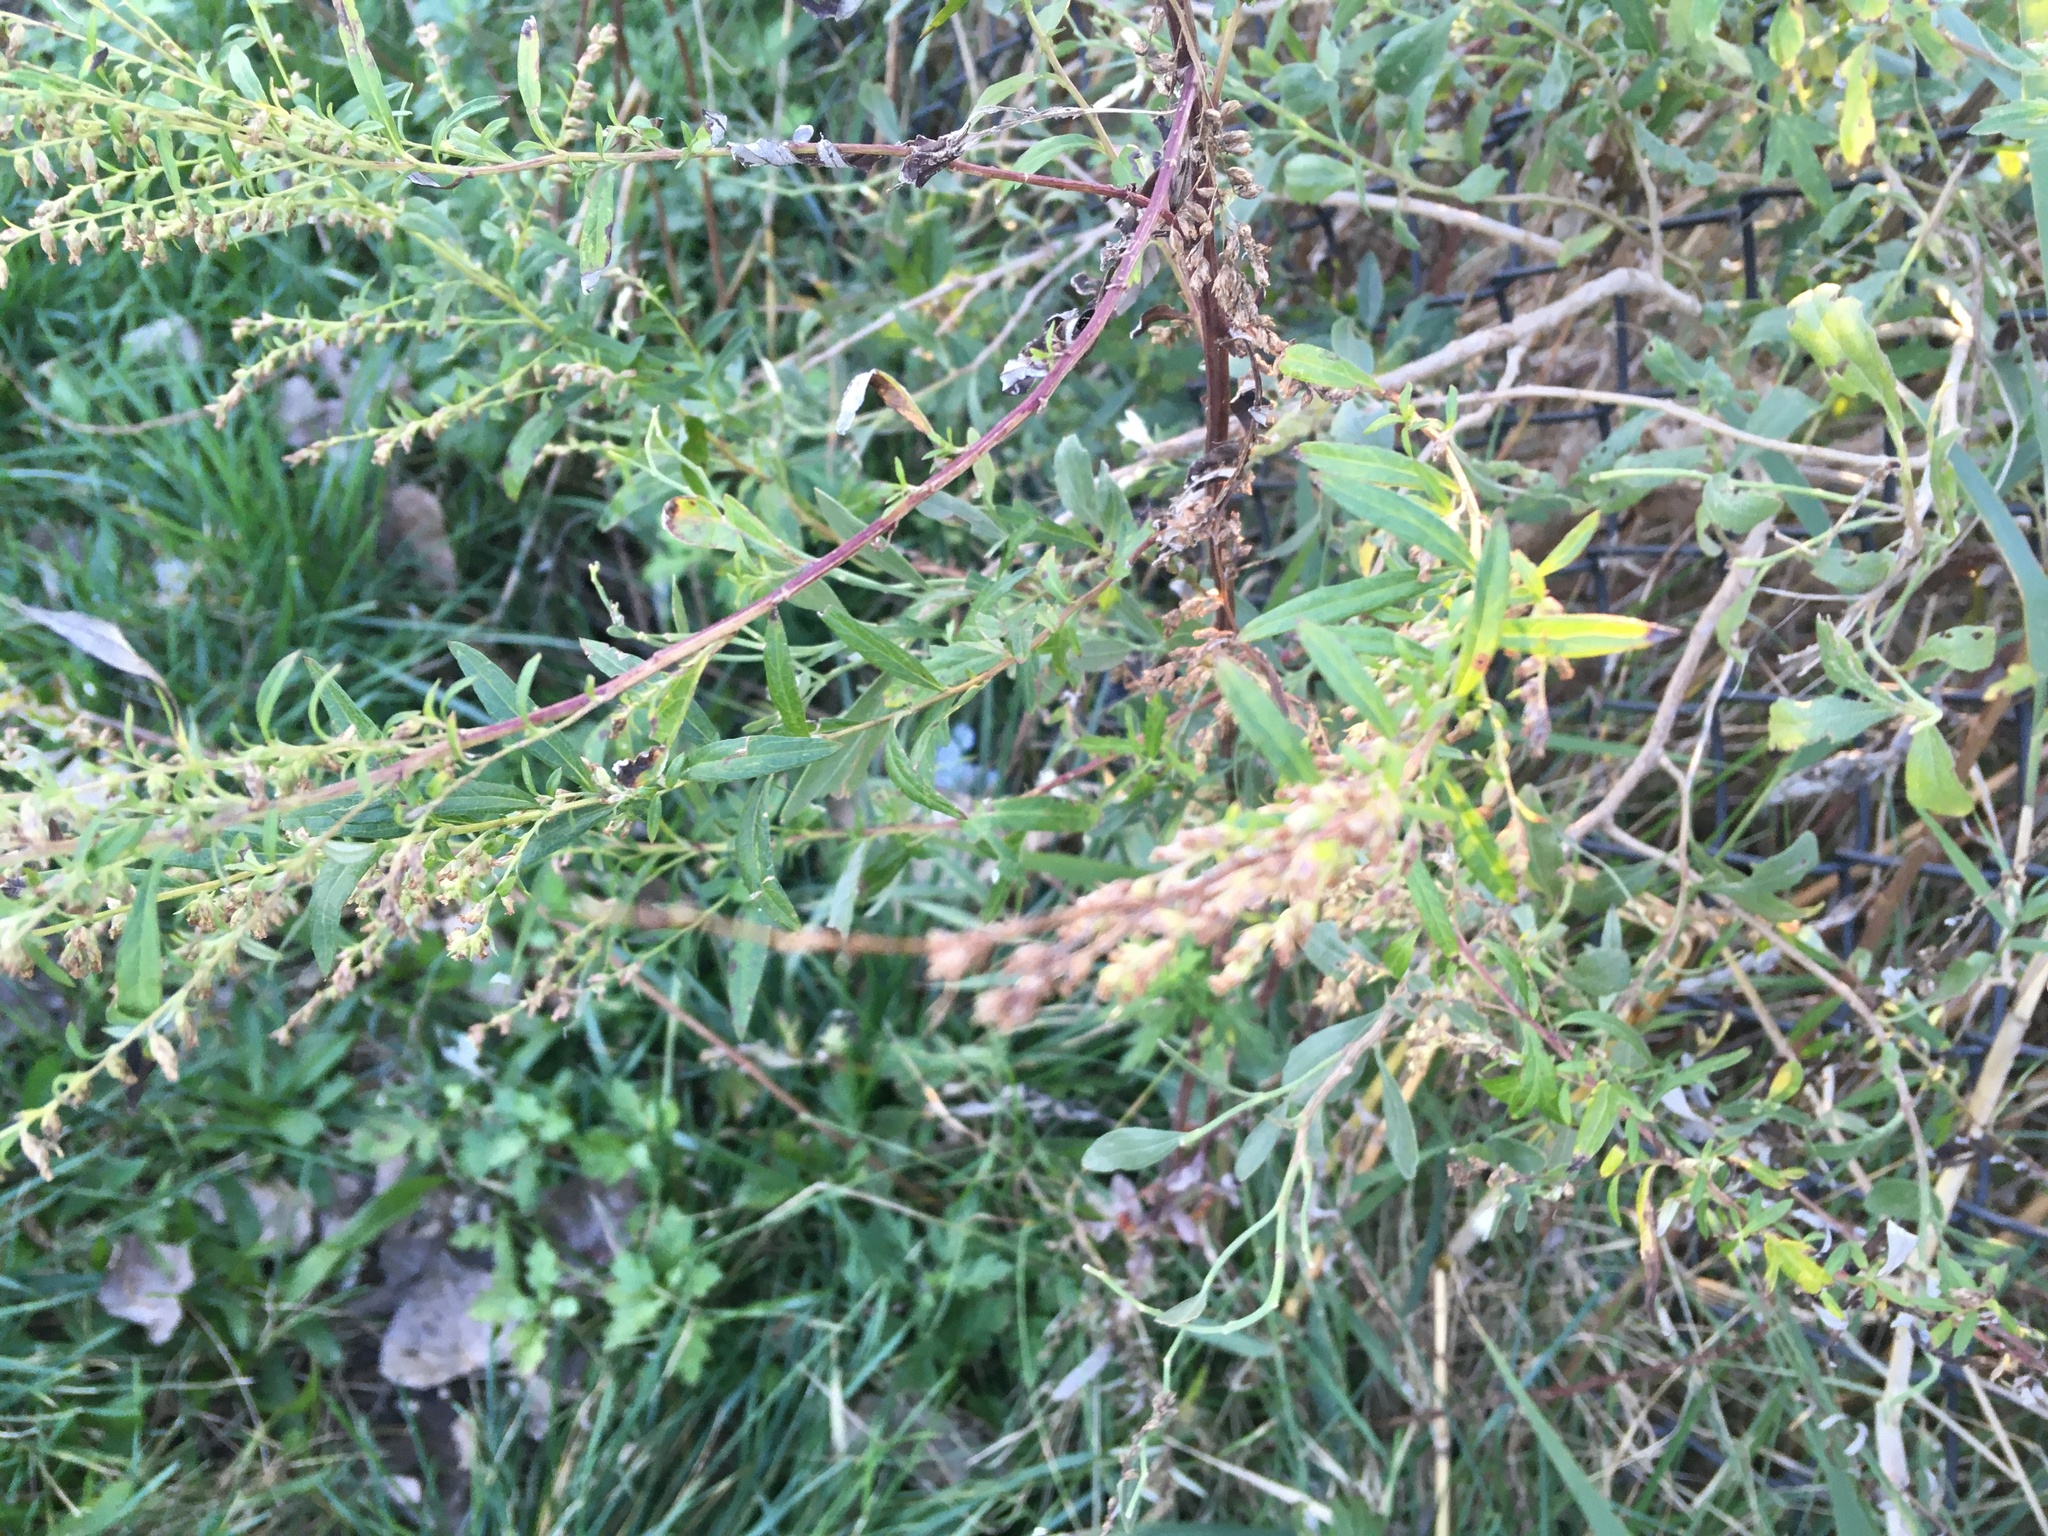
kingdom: Plantae
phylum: Tracheophyta
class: Magnoliopsida
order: Asterales
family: Asteraceae
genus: Artemisia
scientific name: Artemisia vulgaris
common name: Mugwort
